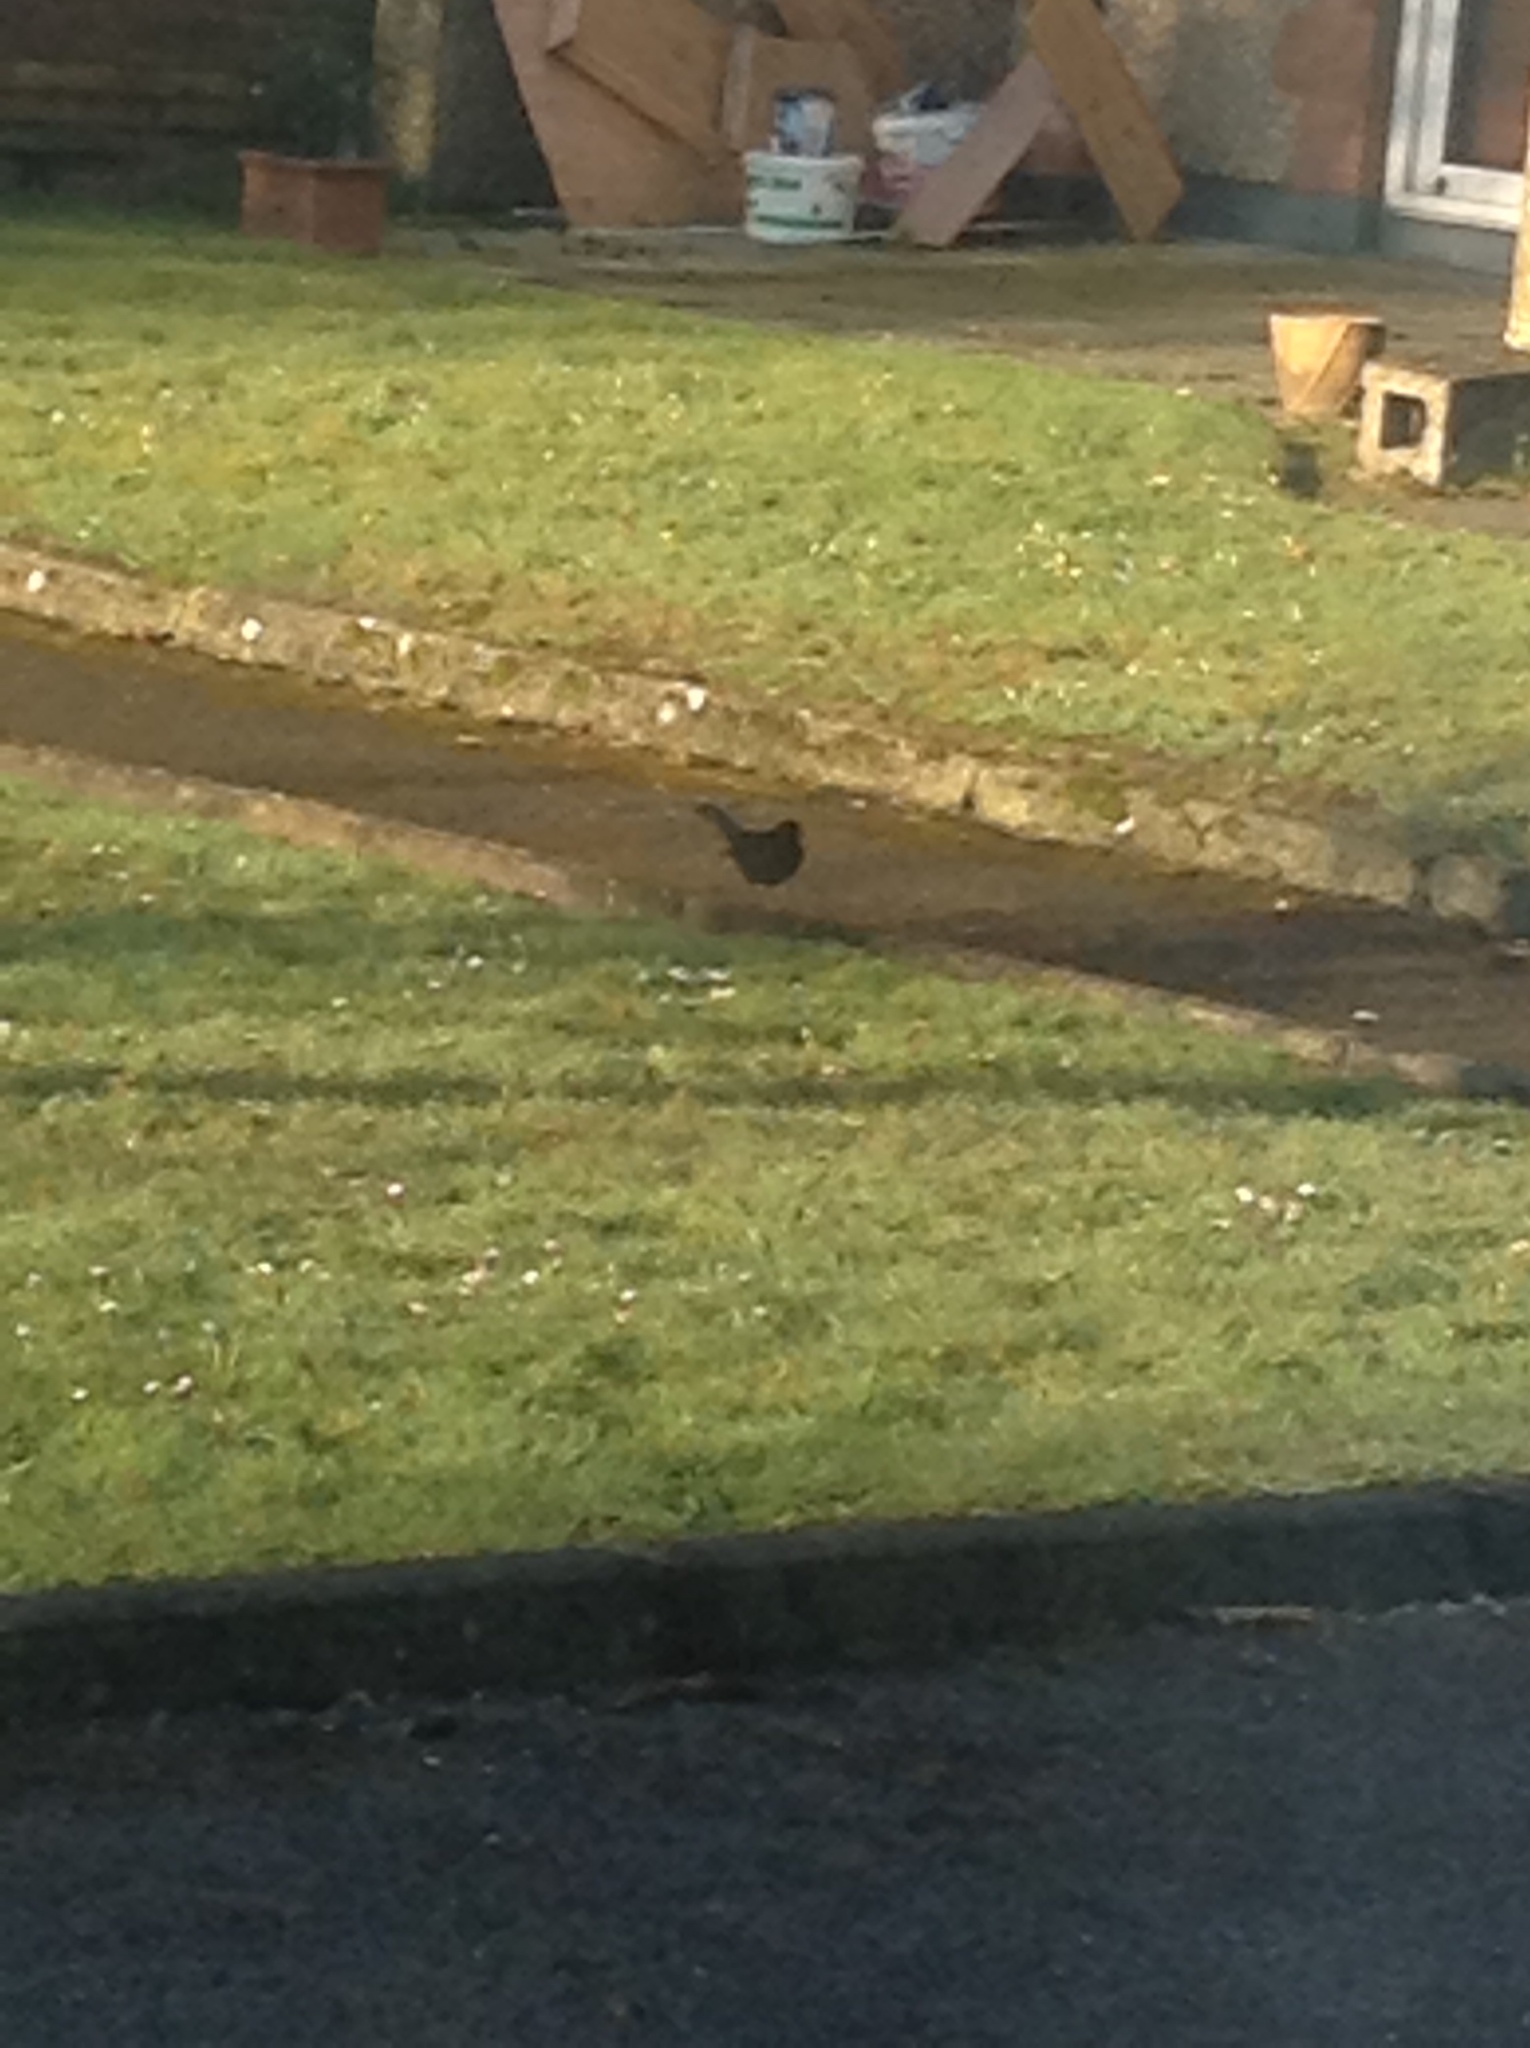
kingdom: Animalia
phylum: Chordata
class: Aves
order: Passeriformes
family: Turdidae
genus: Turdus
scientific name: Turdus merula
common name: Common blackbird
